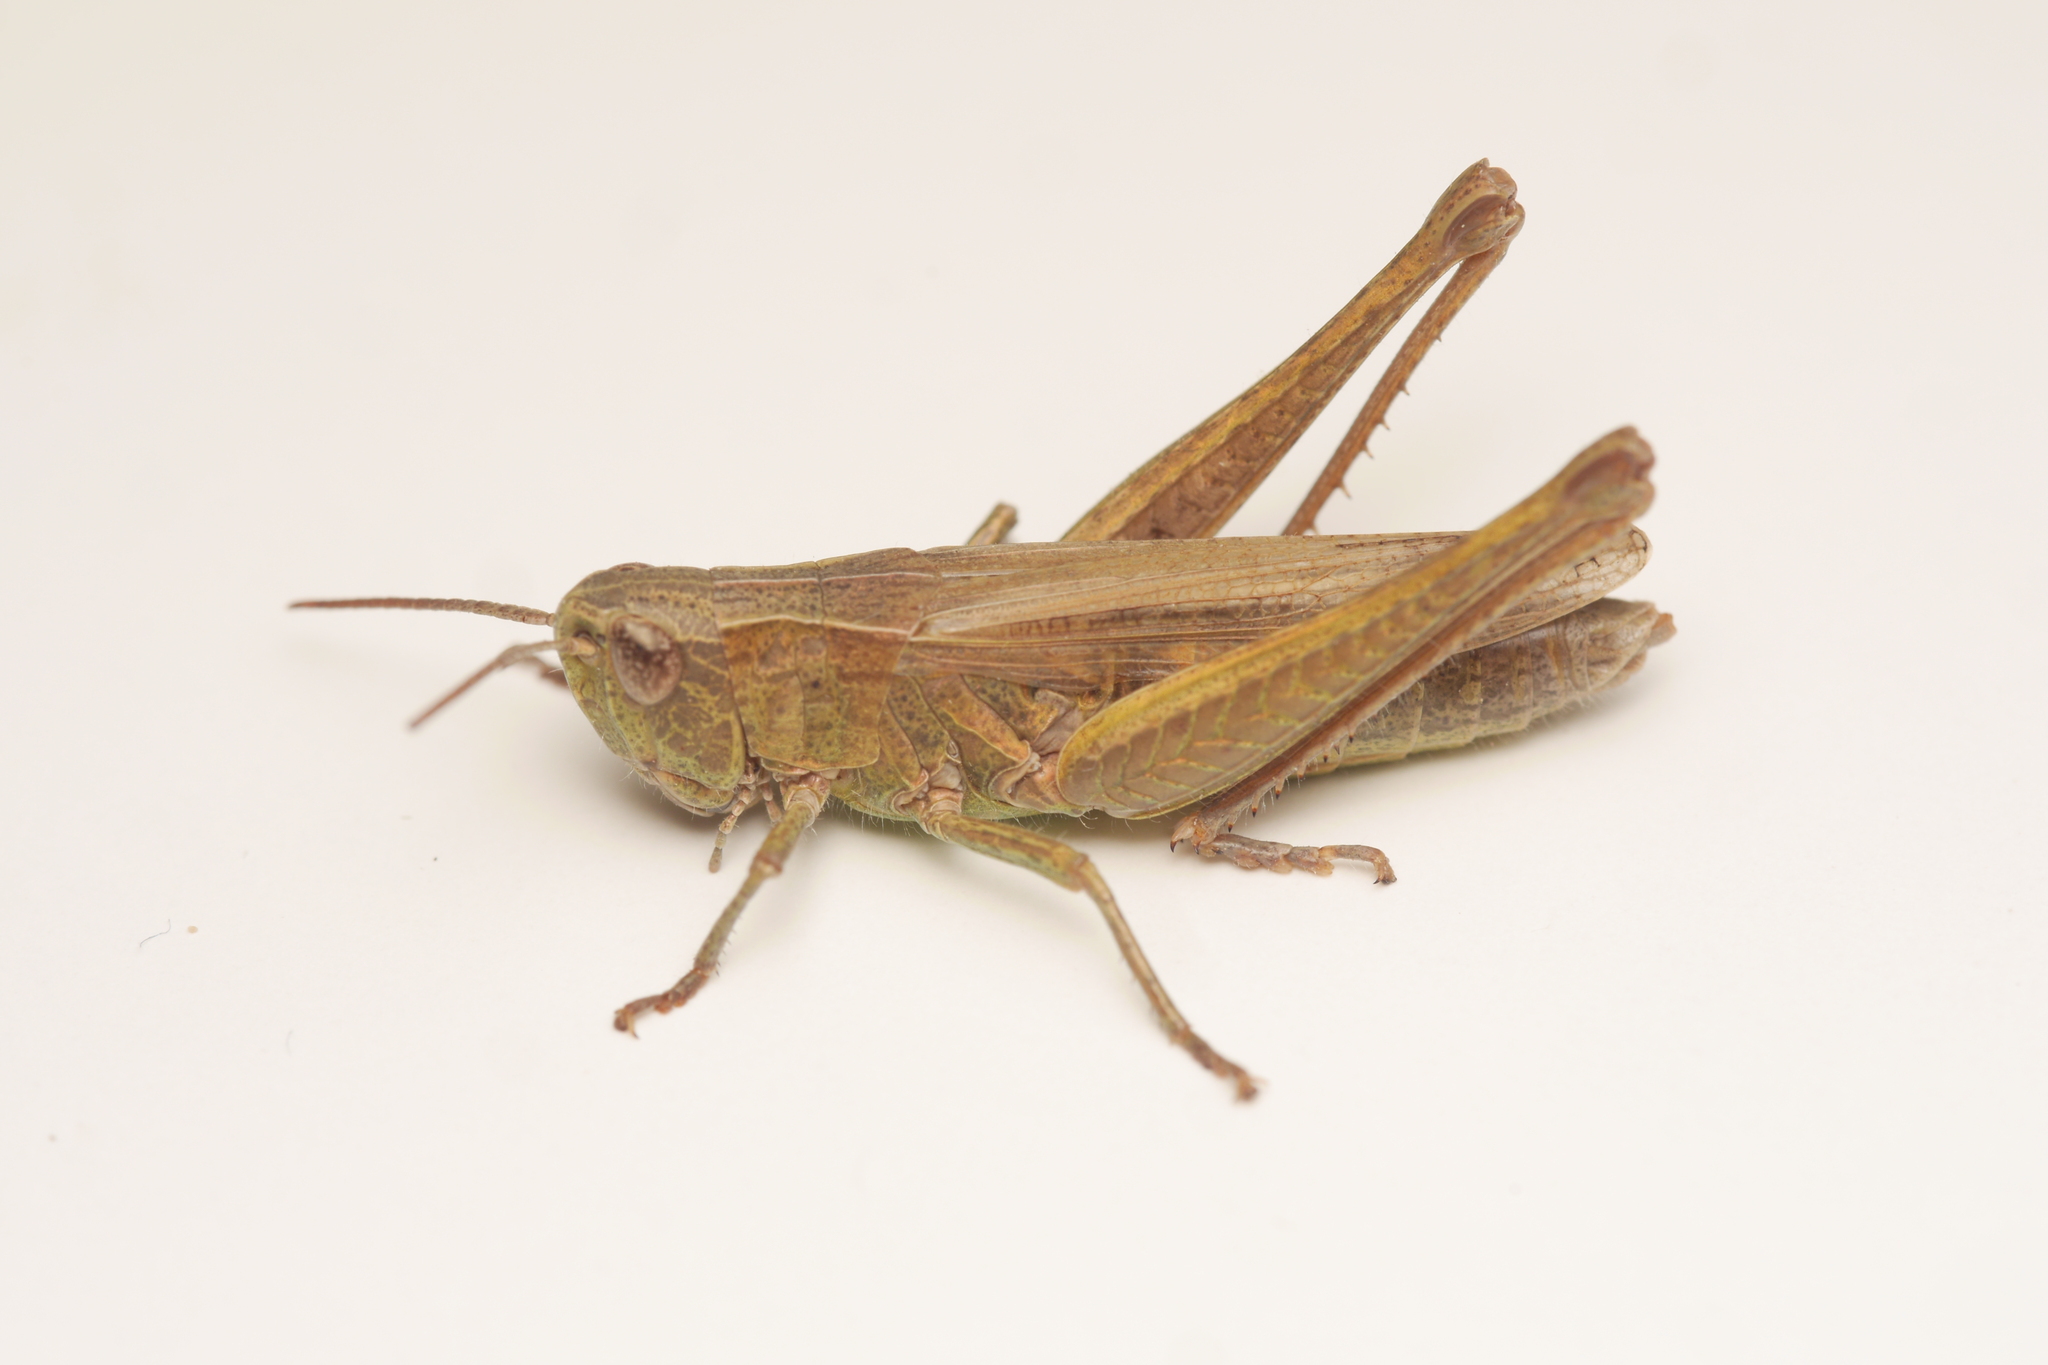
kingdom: Animalia
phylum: Arthropoda
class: Insecta
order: Orthoptera
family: Acrididae
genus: Chorthippus
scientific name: Chorthippus dorsatus
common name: Steppe grasshopper
